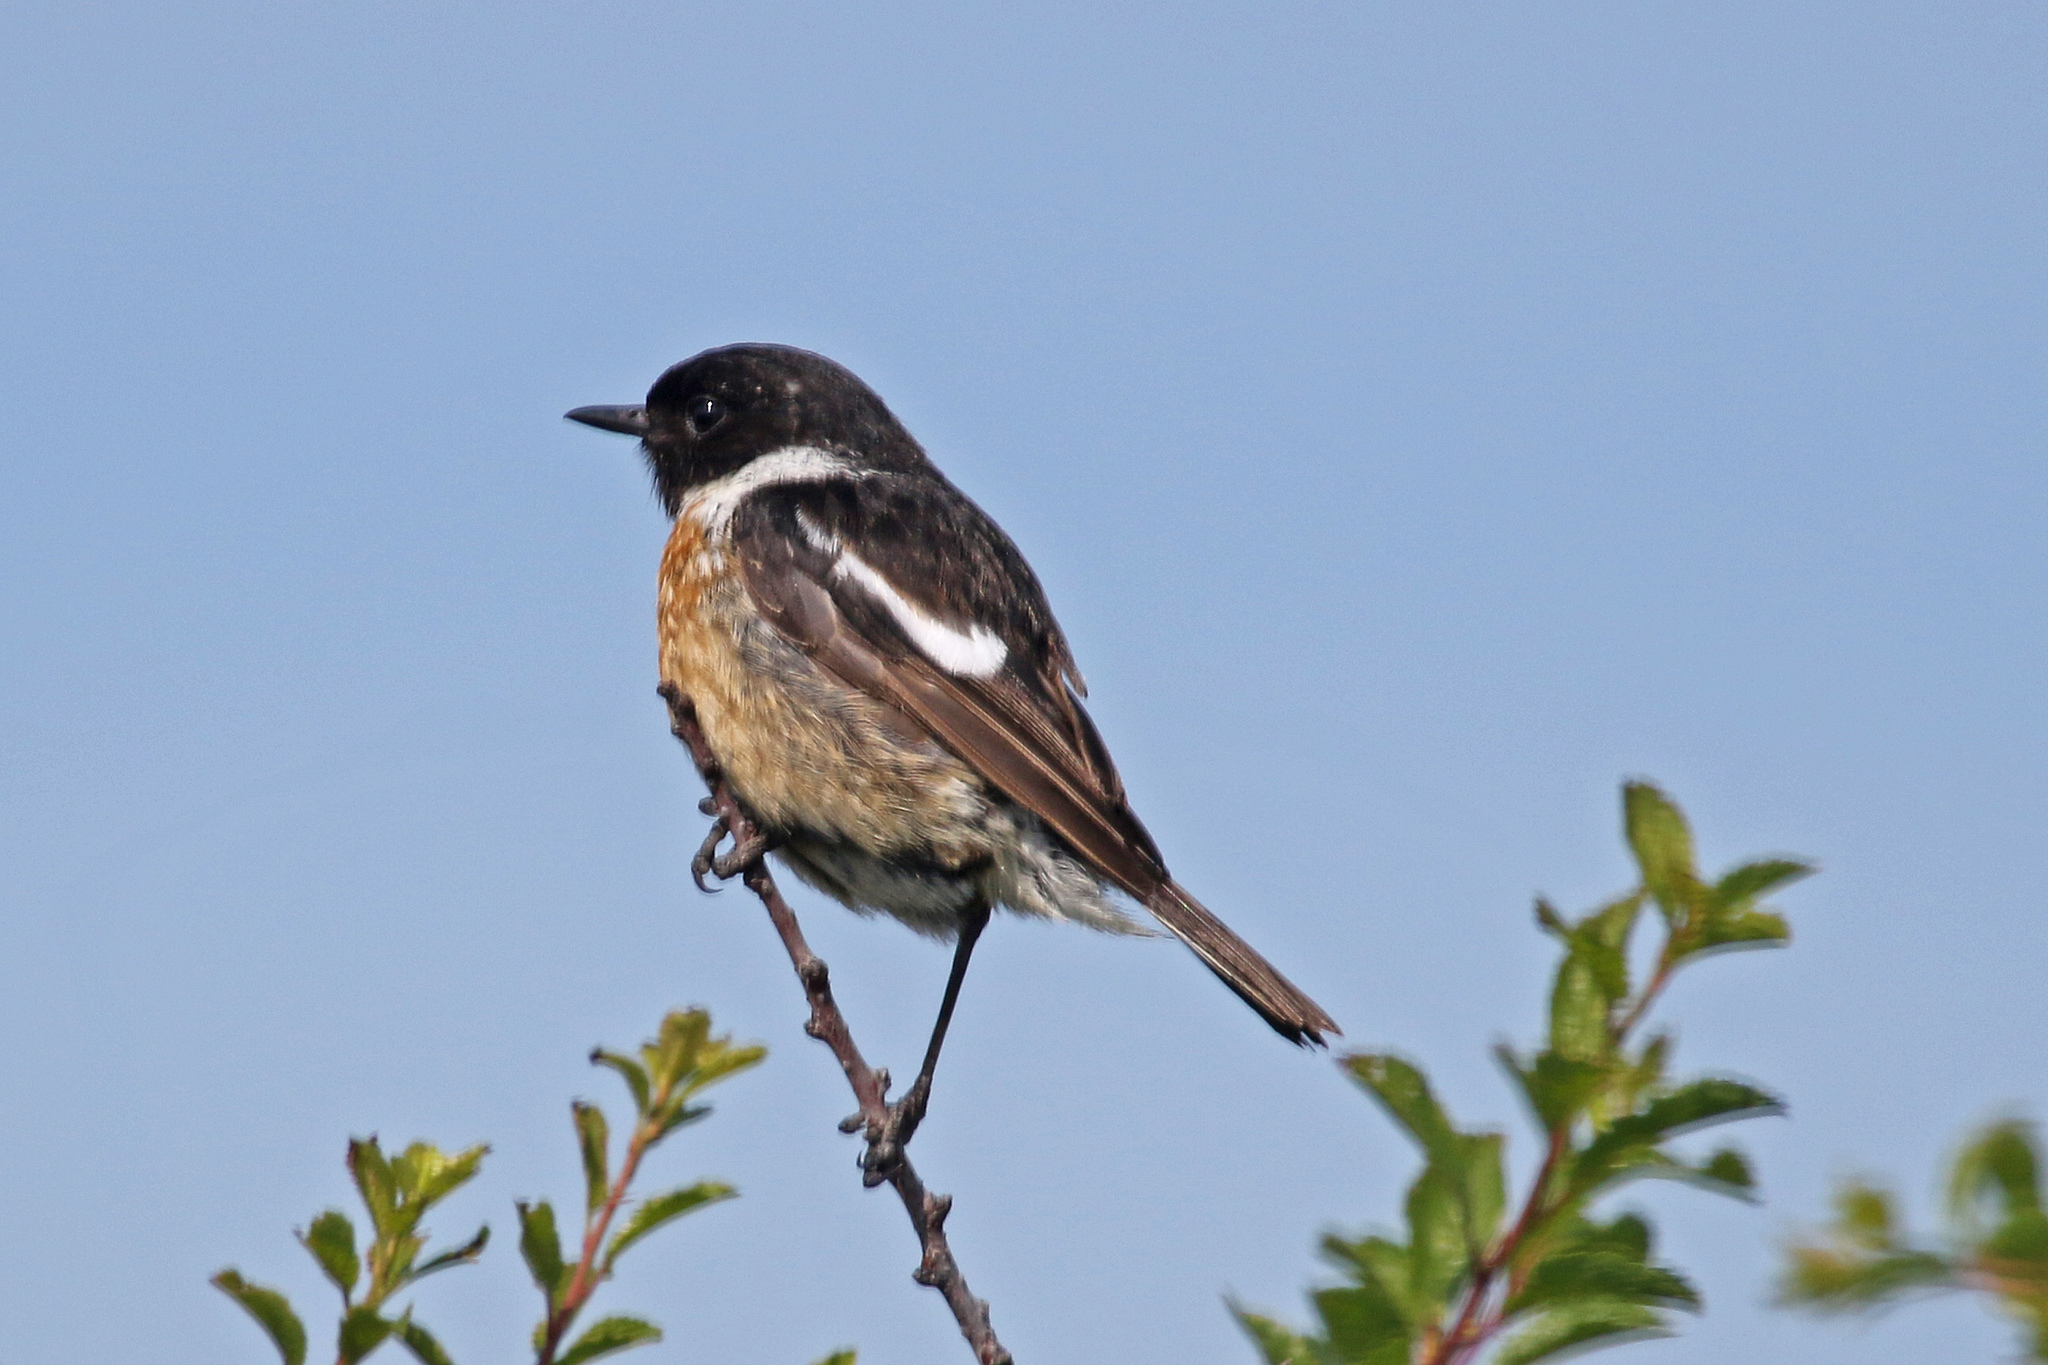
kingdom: Animalia
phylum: Chordata
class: Aves
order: Passeriformes
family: Muscicapidae
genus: Saxicola
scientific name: Saxicola rubicola
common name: European stonechat
